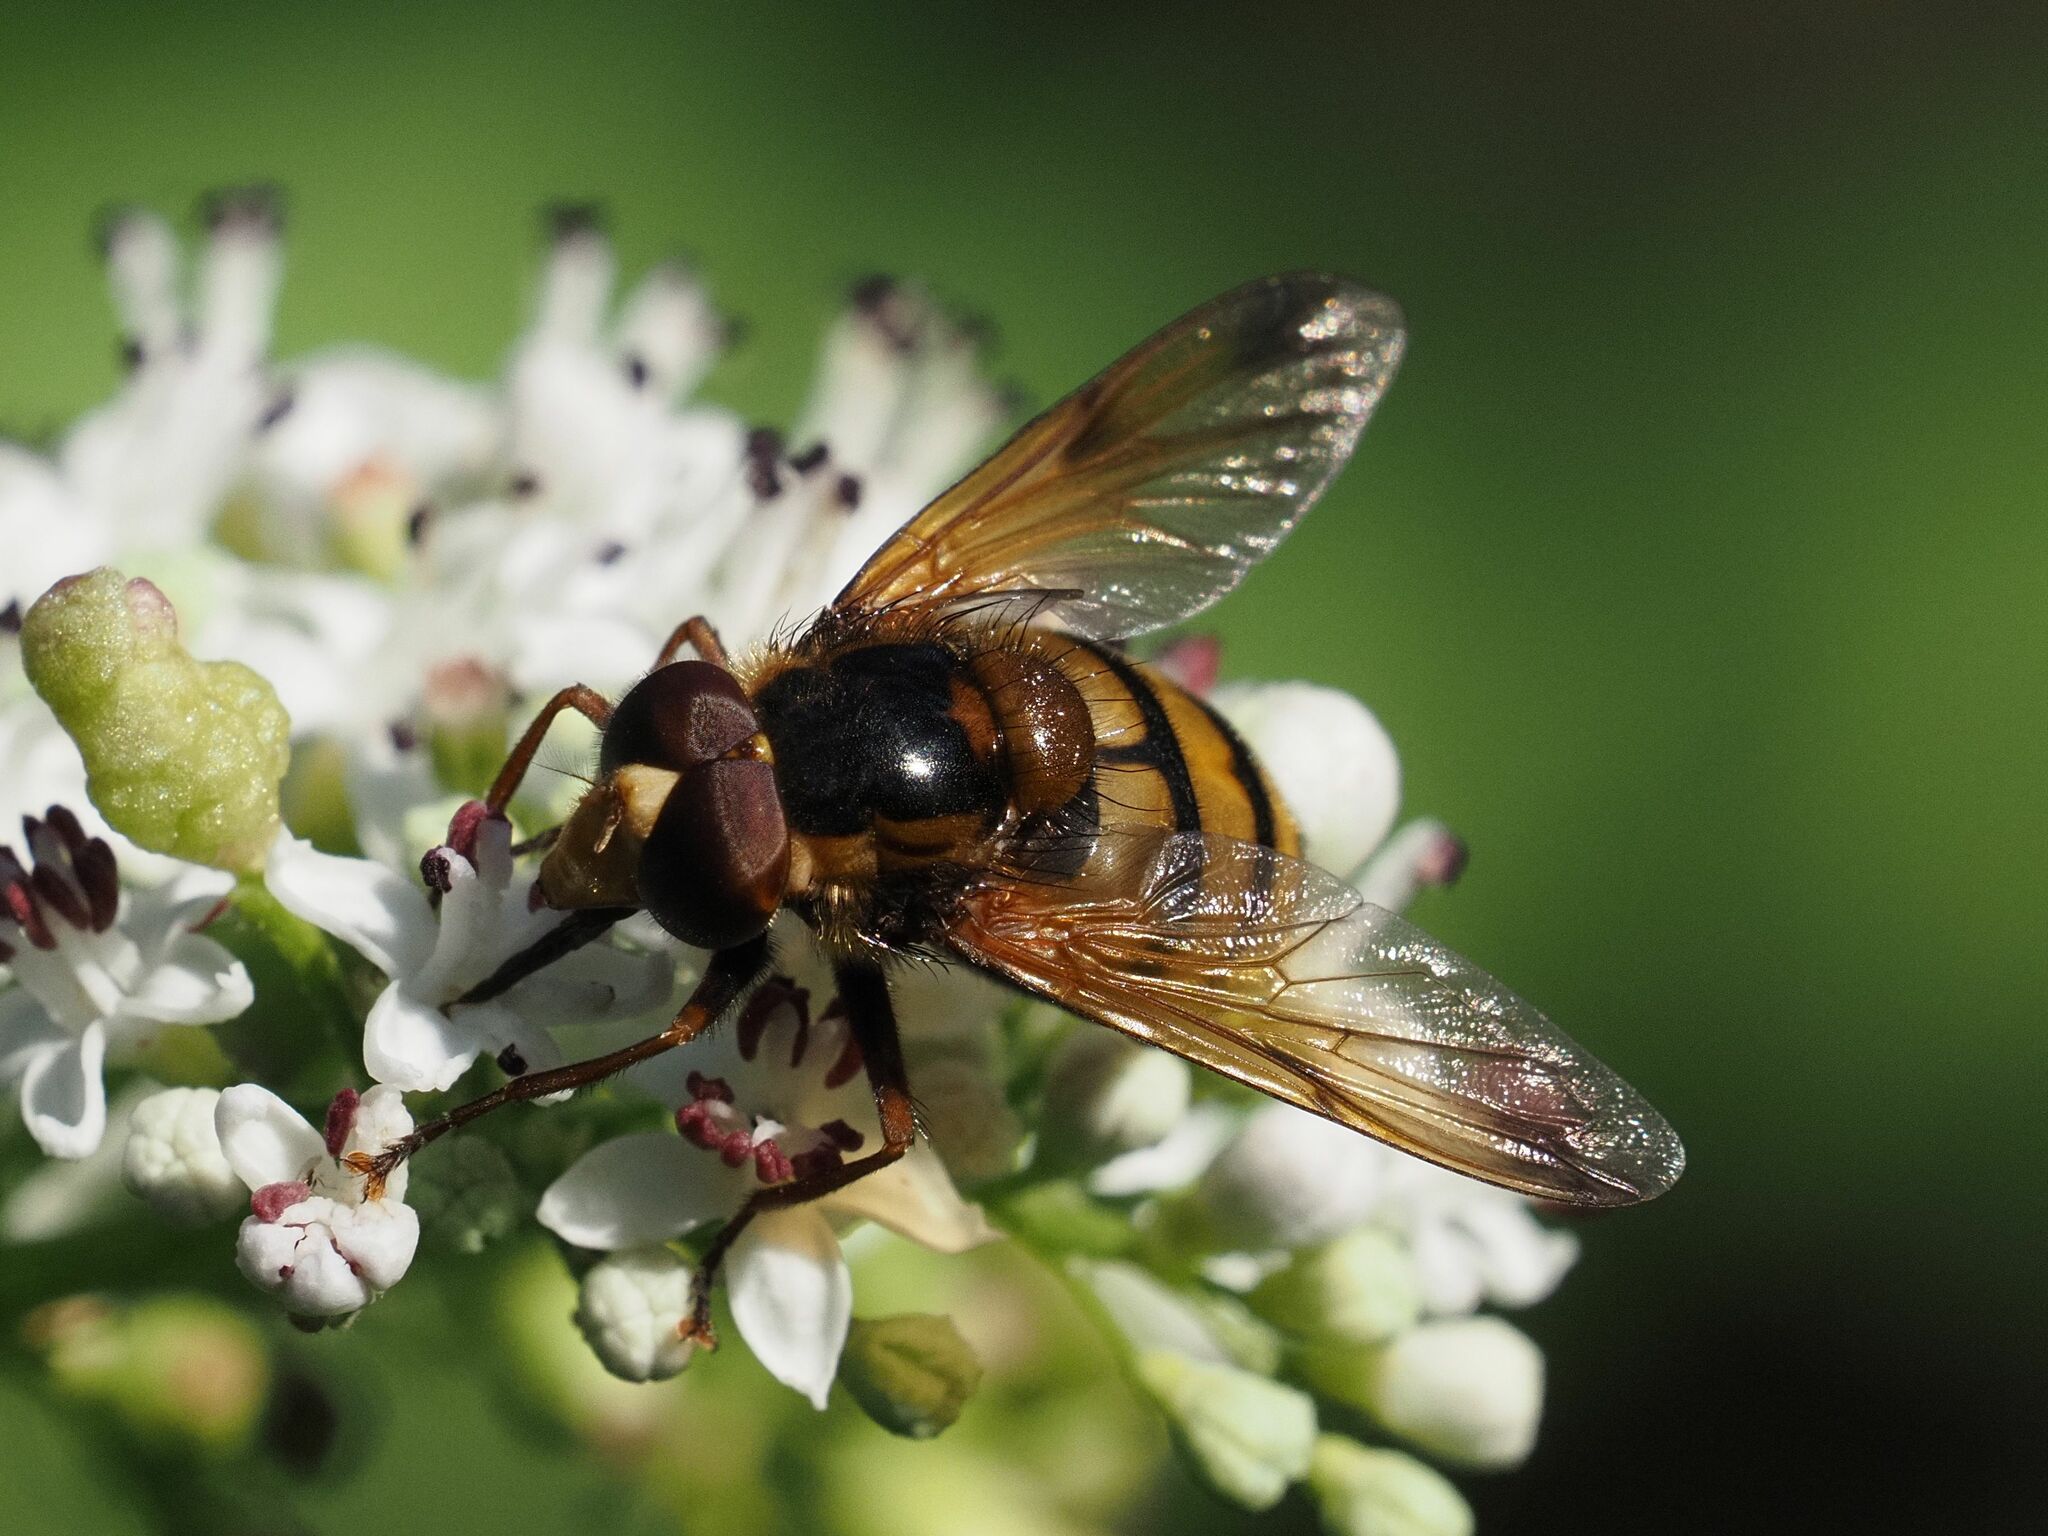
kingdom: Animalia
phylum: Arthropoda
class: Insecta
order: Diptera
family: Syrphidae
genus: Volucella
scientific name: Volucella inanis
